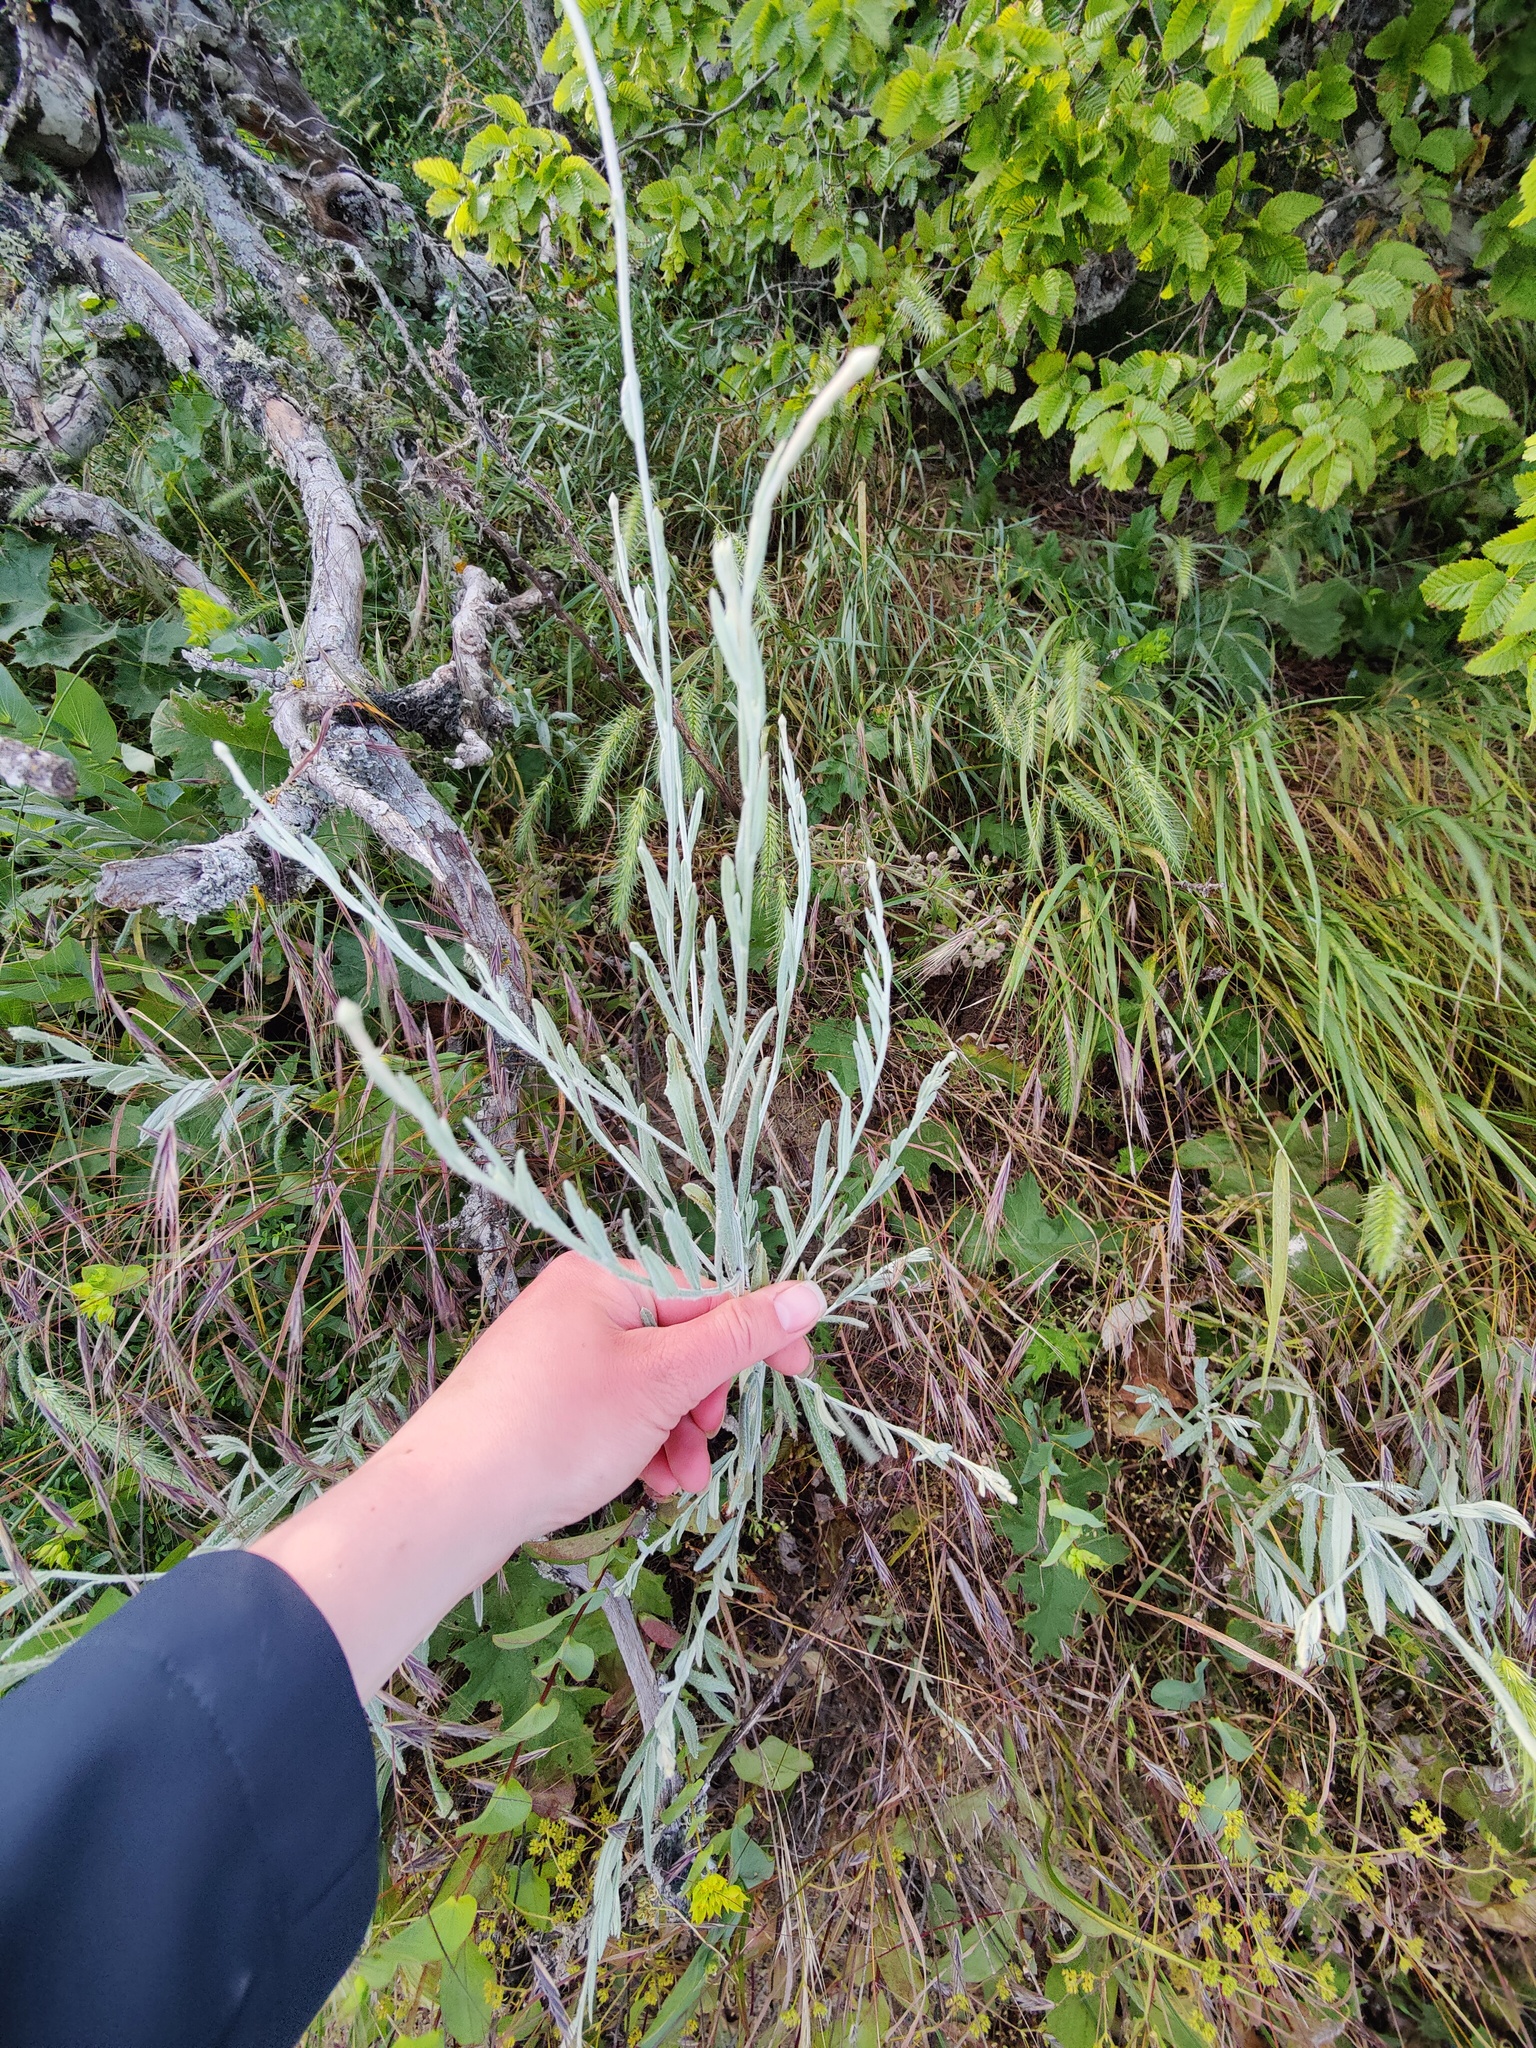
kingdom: Plantae
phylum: Tracheophyta
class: Magnoliopsida
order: Asterales
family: Asteraceae
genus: Xeranthemum
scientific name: Xeranthemum cylindraceum
